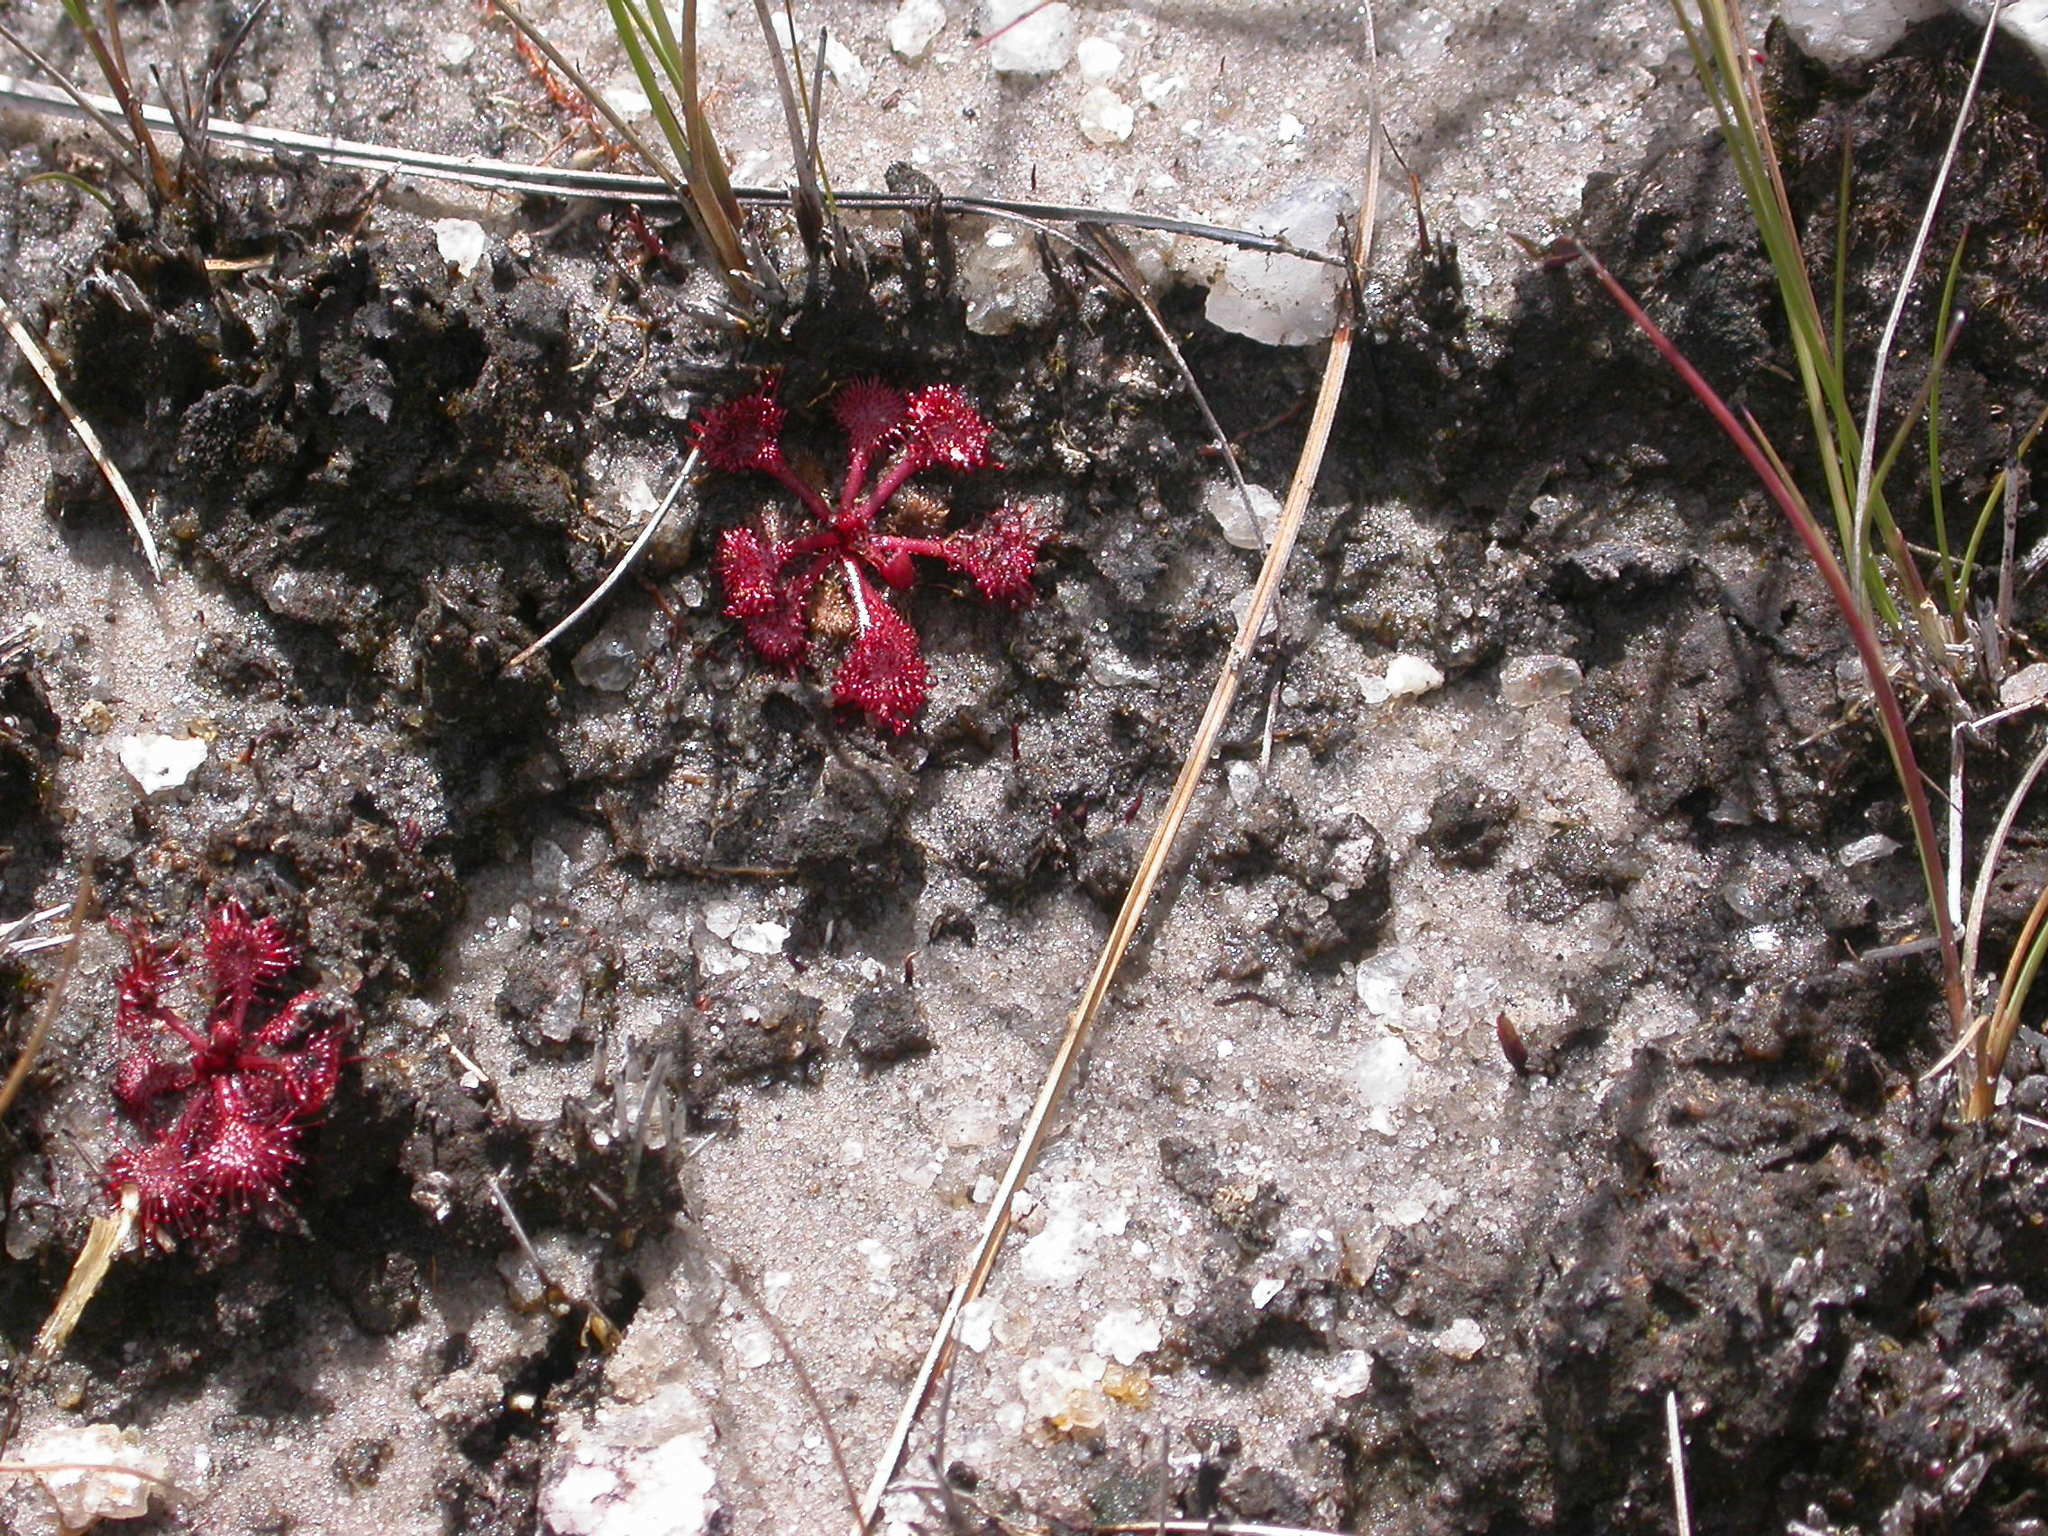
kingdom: Plantae
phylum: Tracheophyta
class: Magnoliopsida
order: Caryophyllales
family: Droseraceae
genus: Drosera
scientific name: Drosera burkeana
